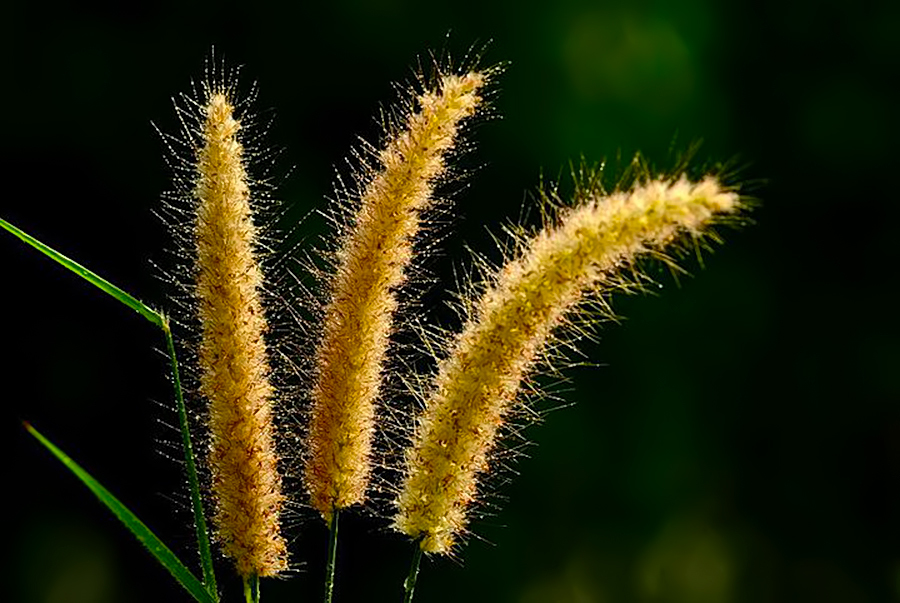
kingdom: Plantae
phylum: Tracheophyta
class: Liliopsida
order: Poales
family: Poaceae
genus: Cenchrus
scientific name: Cenchrus purpureus
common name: Elephant grass
